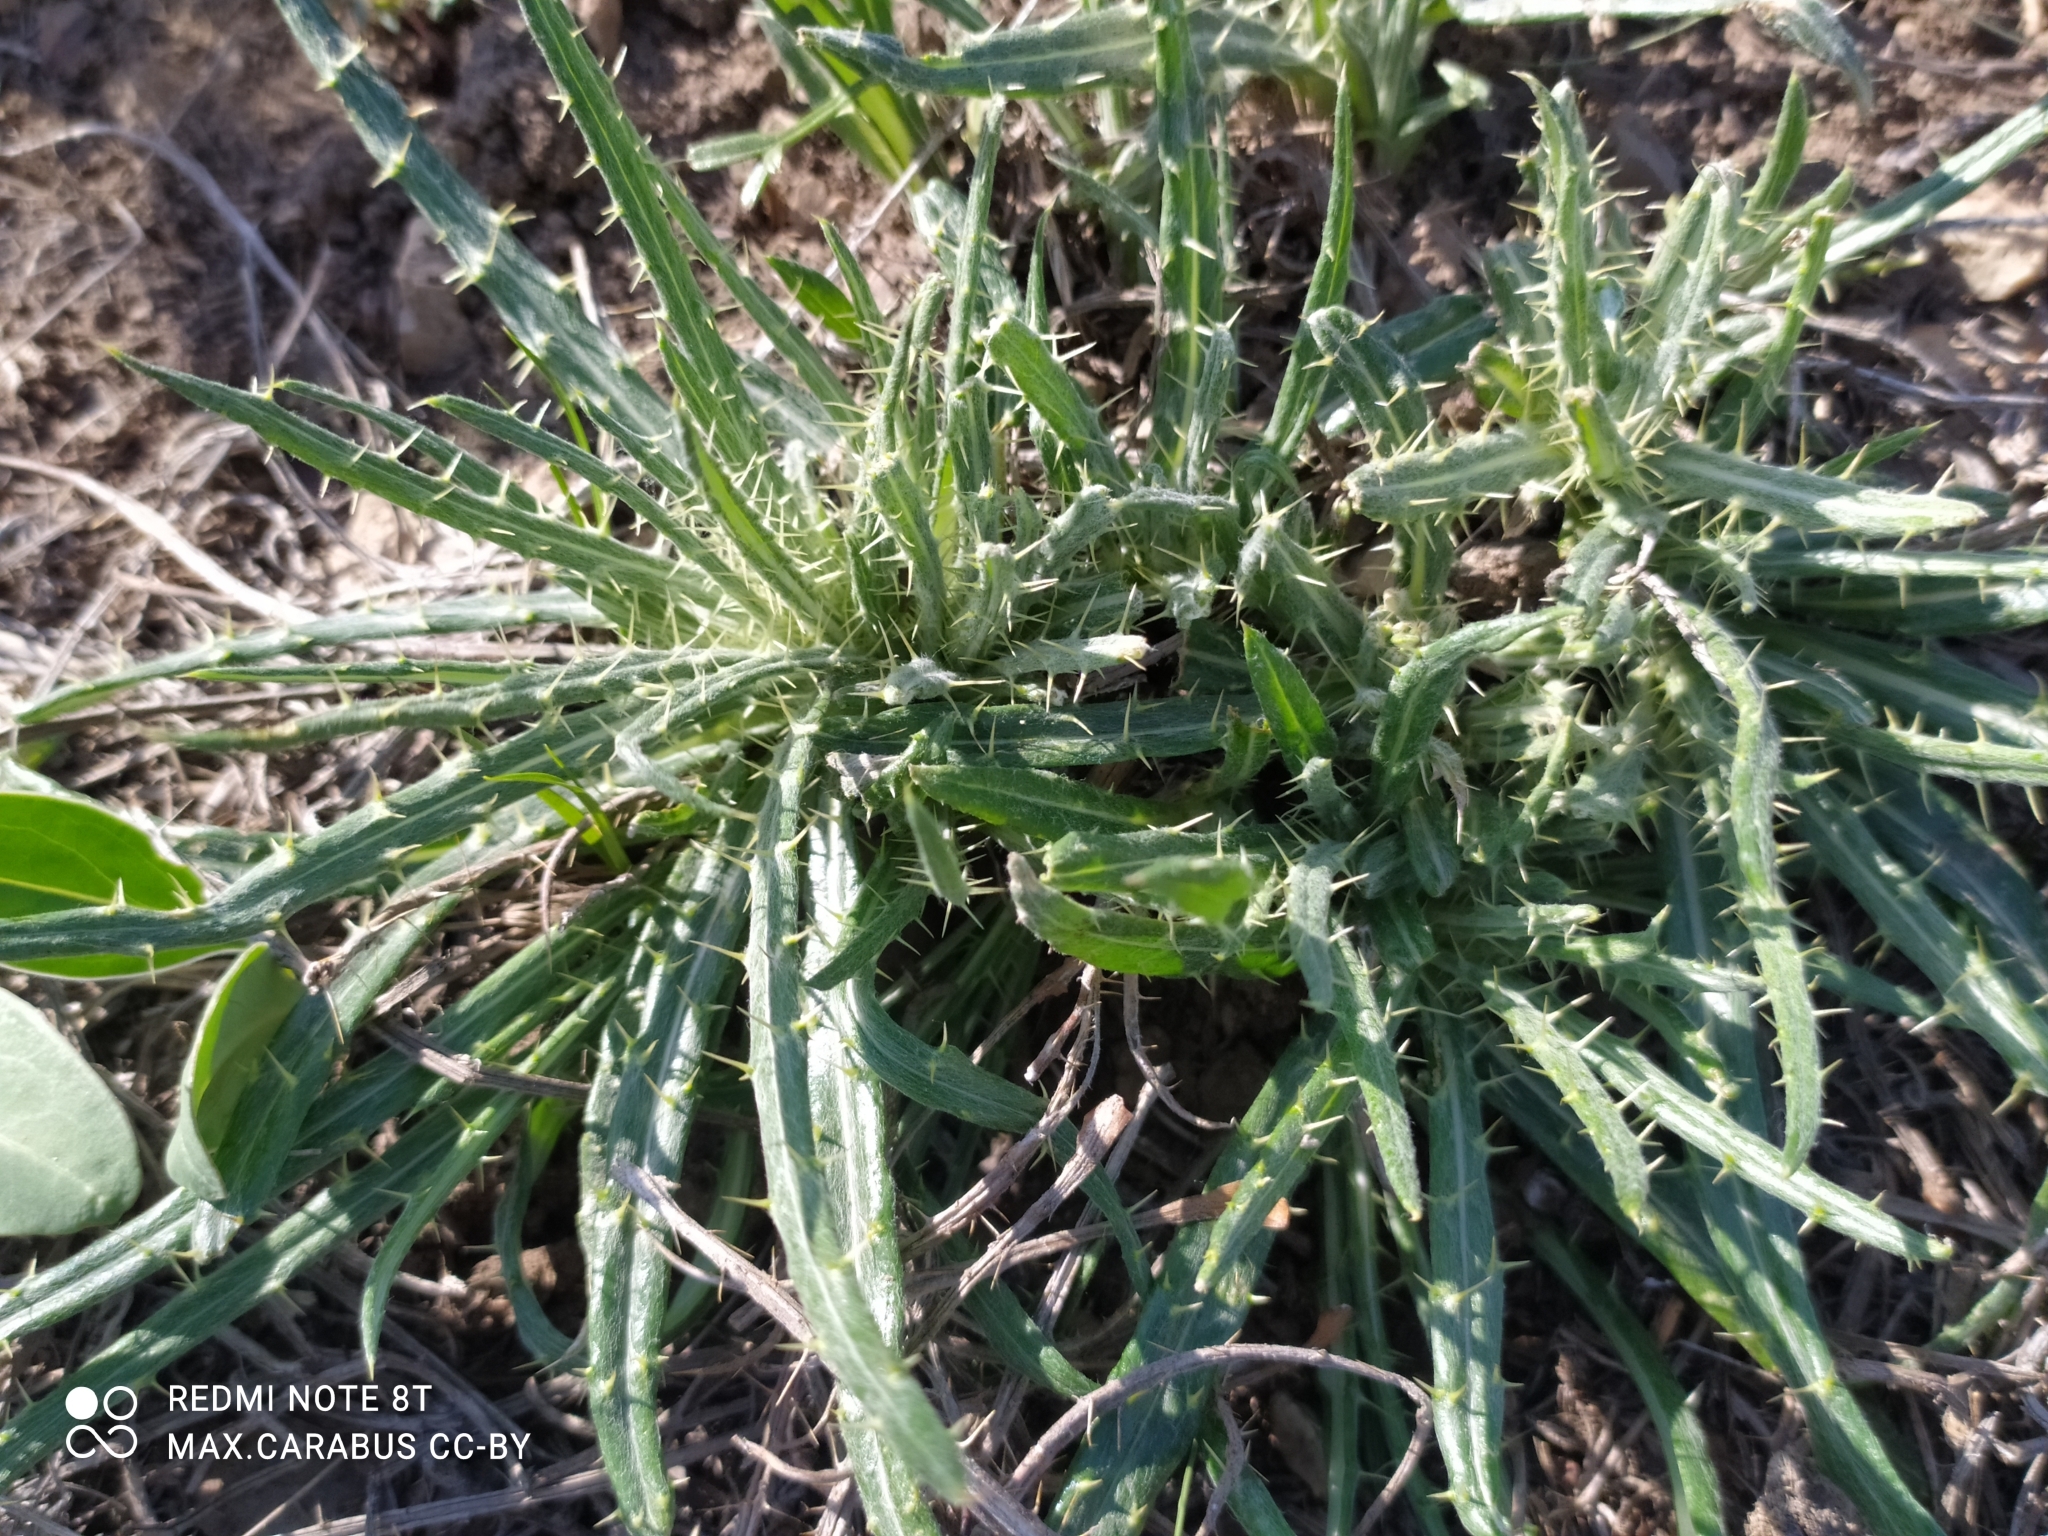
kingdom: Plantae
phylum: Tracheophyta
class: Magnoliopsida
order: Asterales
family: Asteraceae
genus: Ancathia
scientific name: Ancathia igniaria
